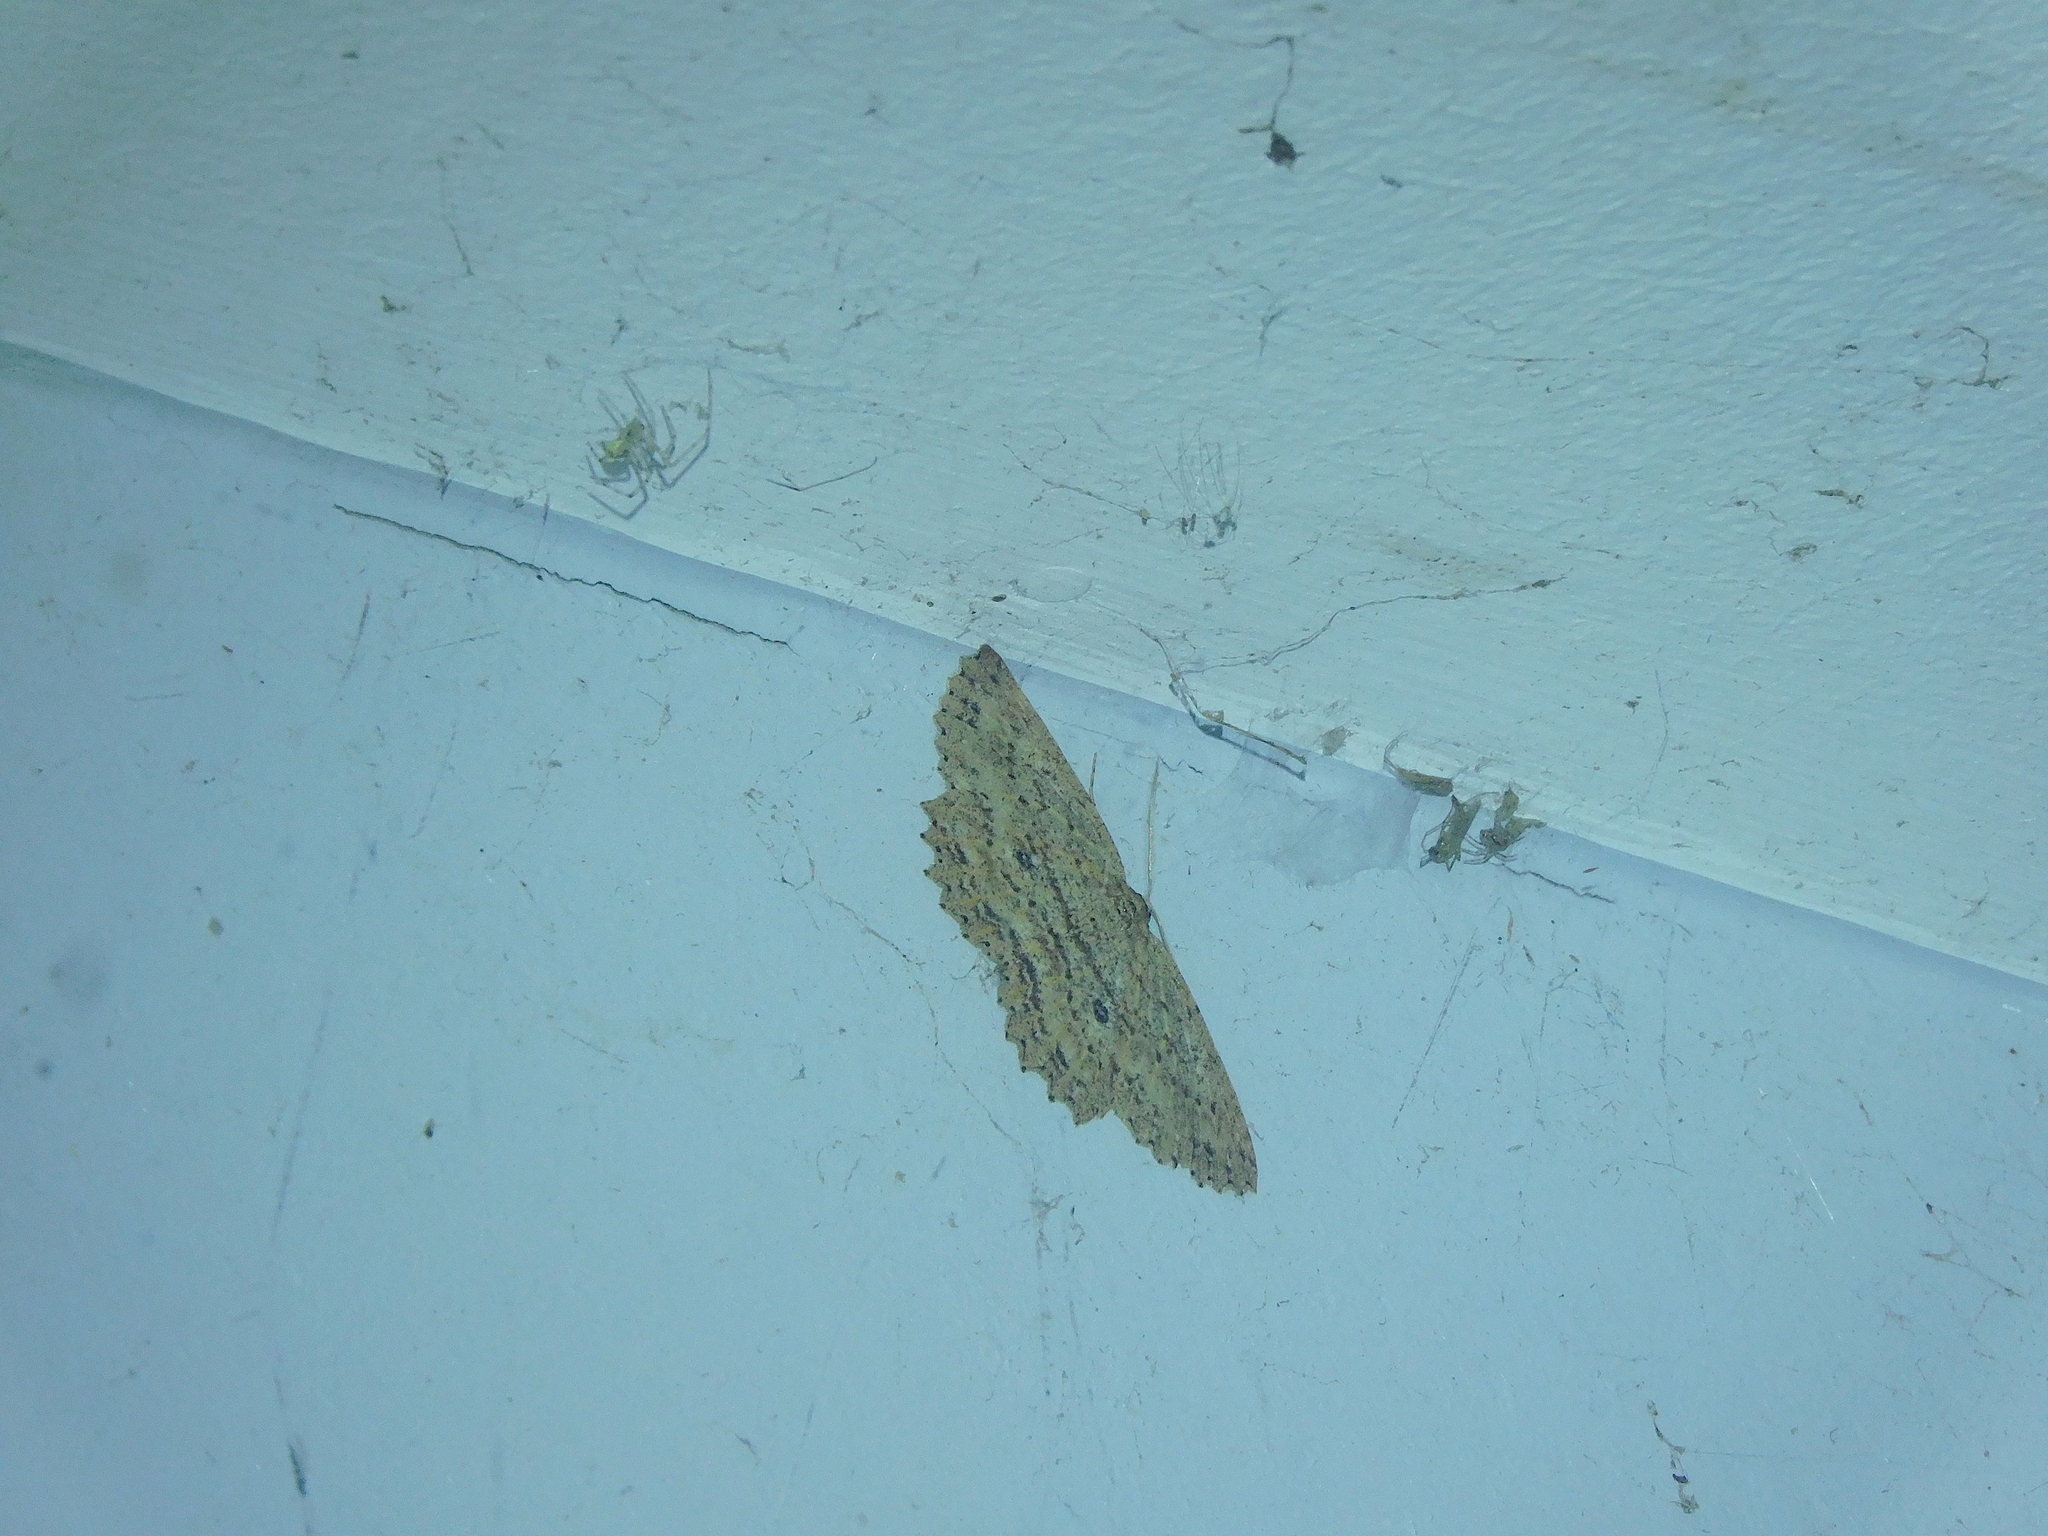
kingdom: Animalia
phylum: Arthropoda
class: Insecta
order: Lepidoptera
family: Geometridae
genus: Scioglyptis
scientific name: Scioglyptis loxographa
